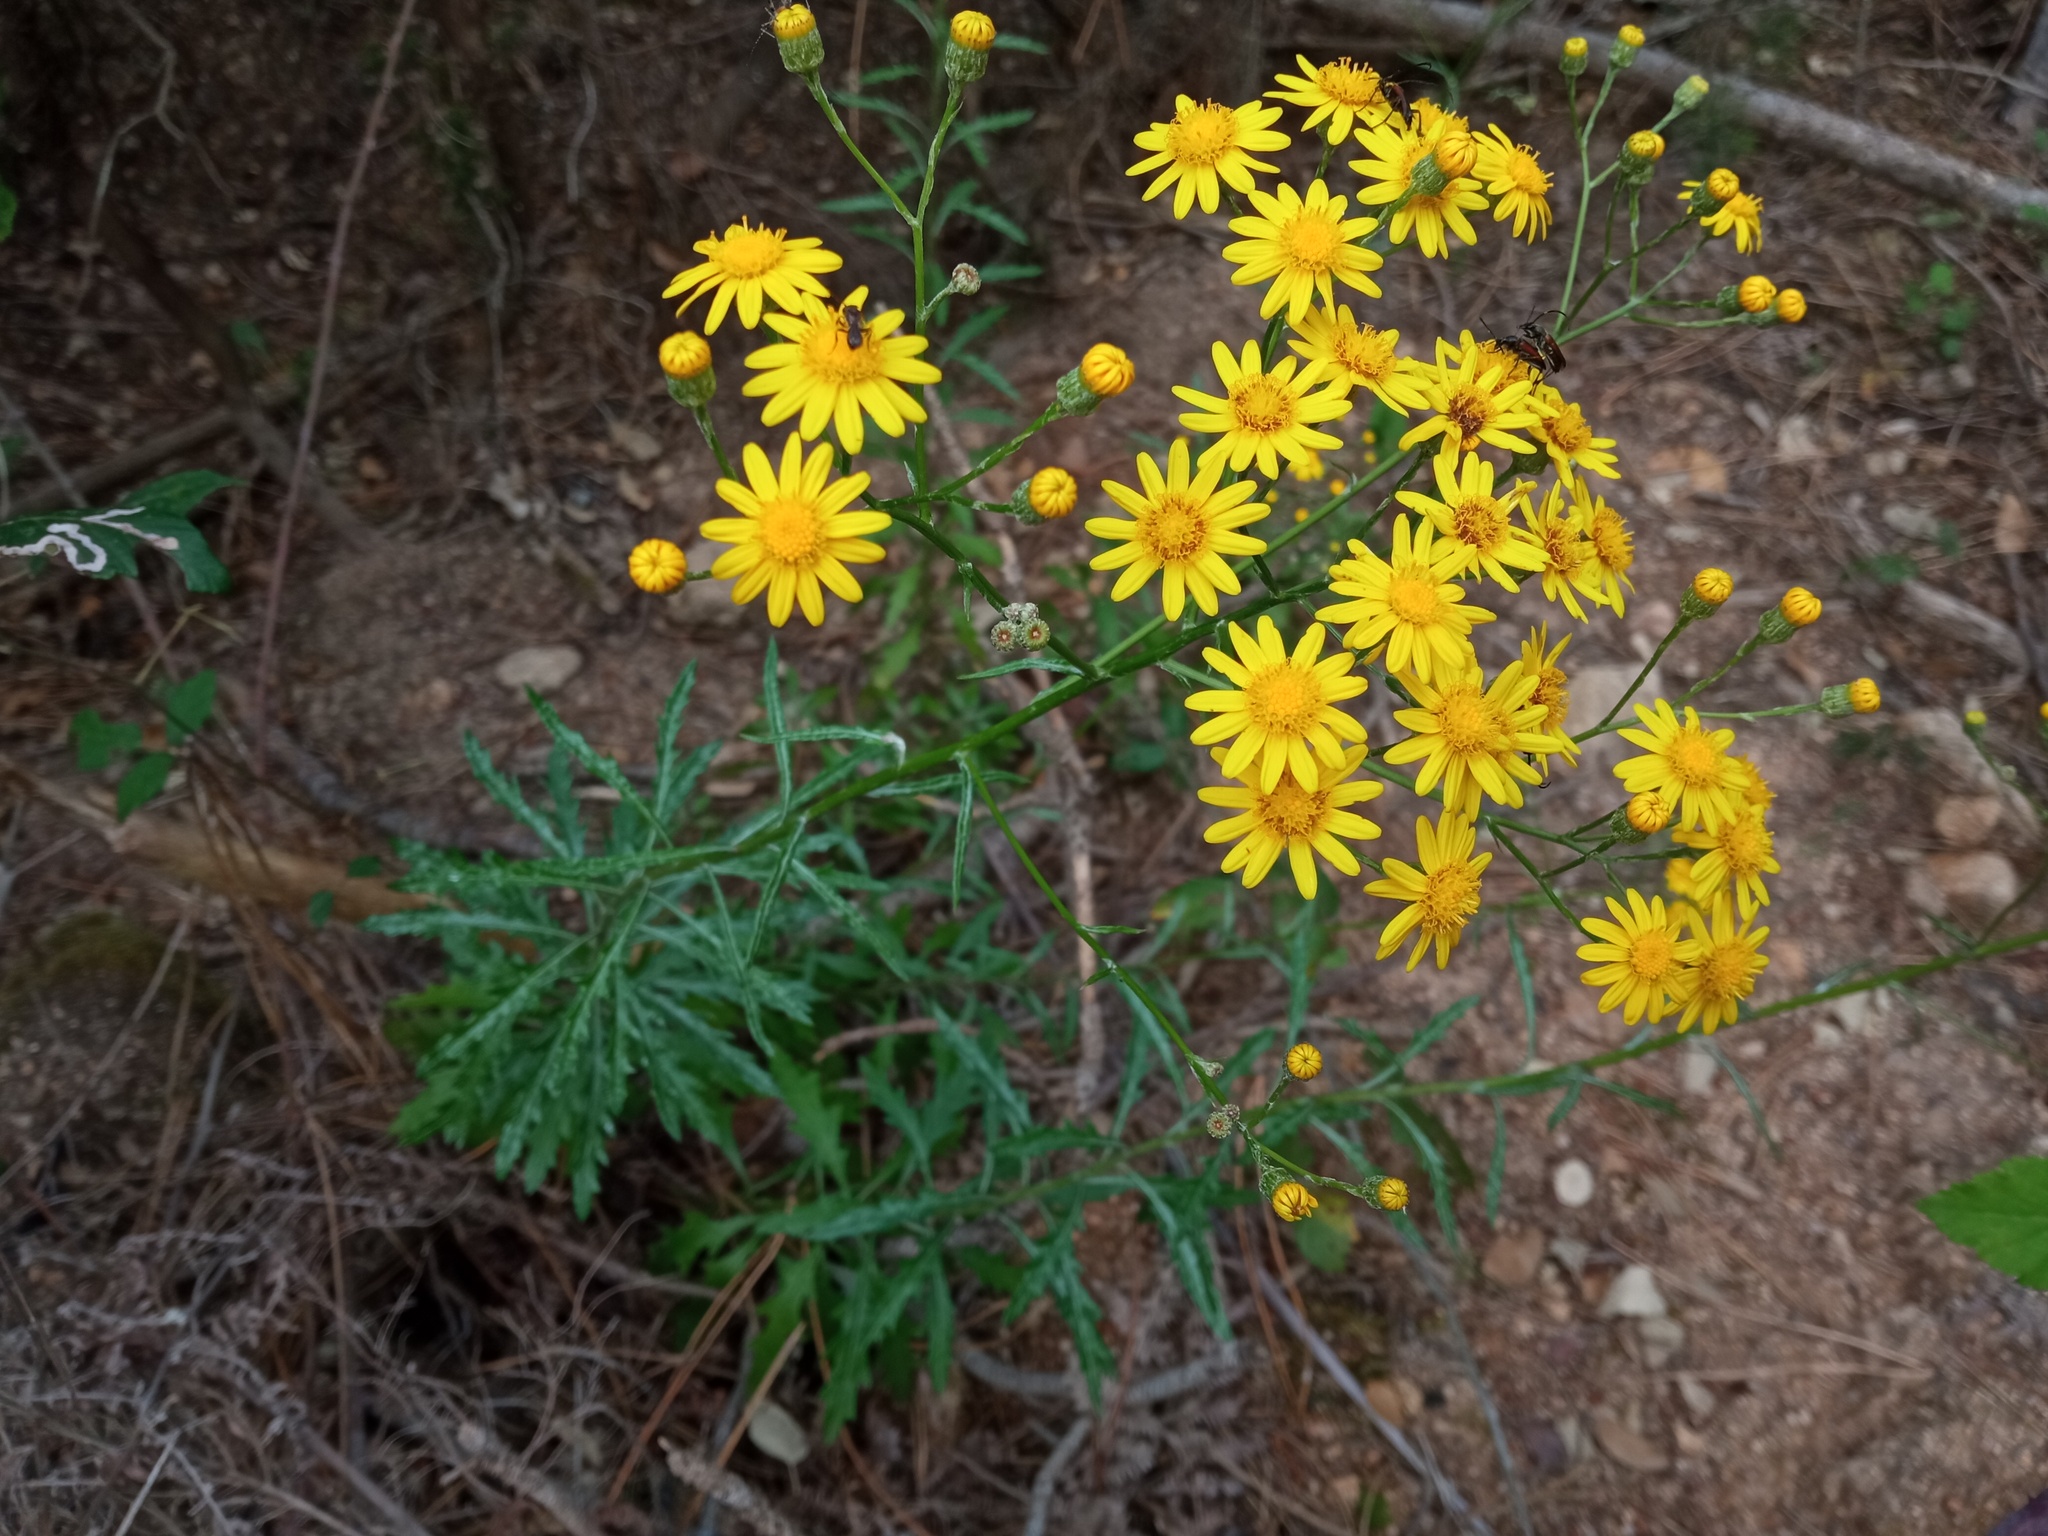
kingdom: Plantae
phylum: Tracheophyta
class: Magnoliopsida
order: Asterales
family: Asteraceae
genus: Senecio
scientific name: Senecio pterophorus
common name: Shoddy ragwort
